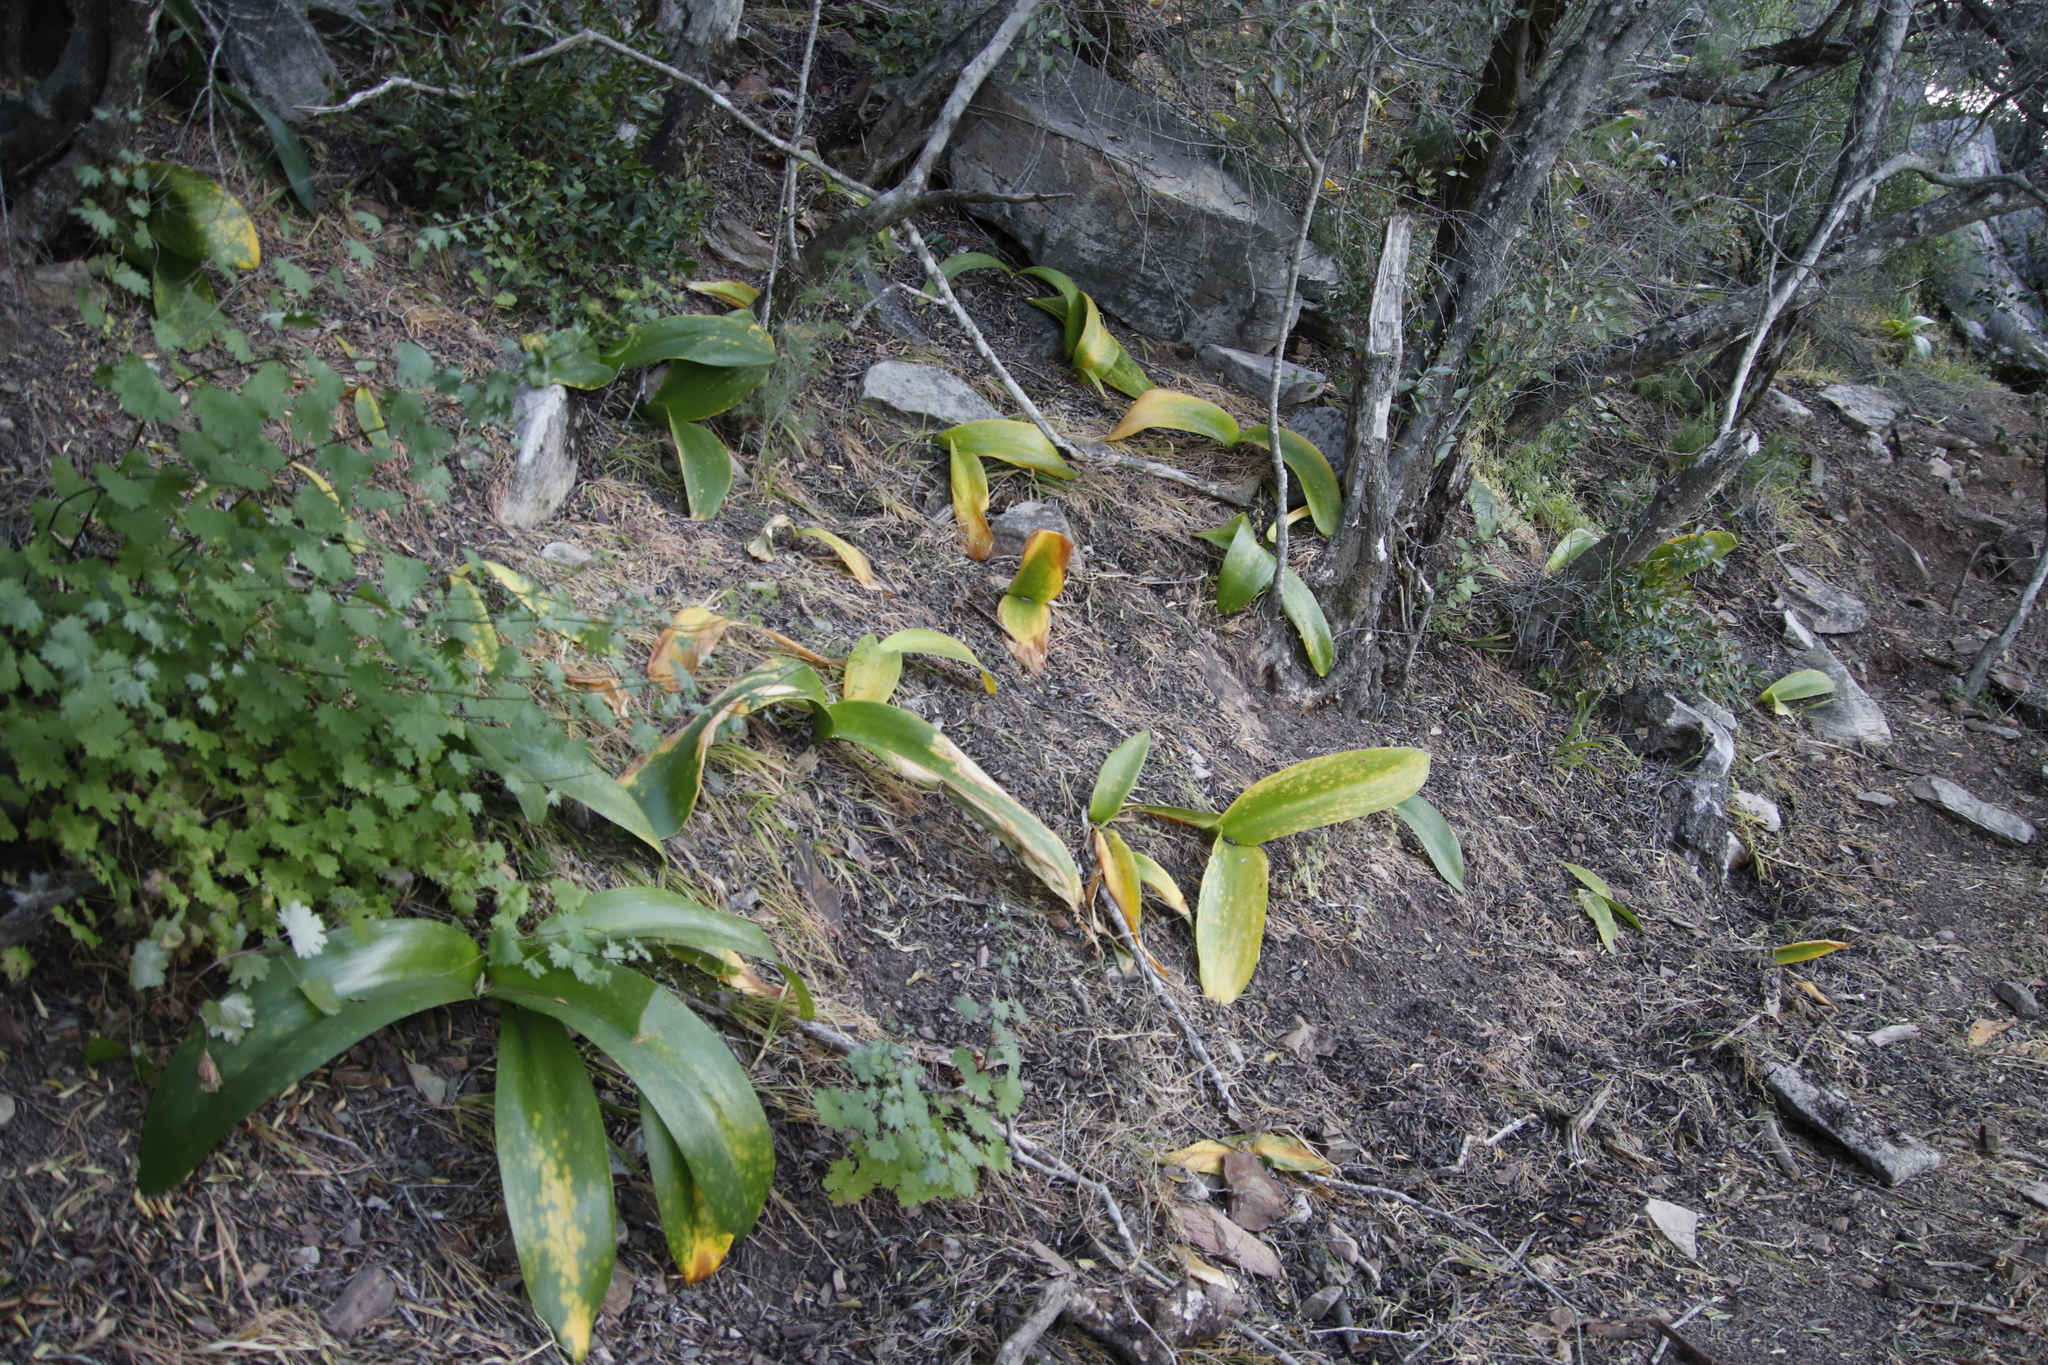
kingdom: Plantae
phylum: Tracheophyta
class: Liliopsida
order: Asparagales
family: Amaryllidaceae
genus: Haemanthus
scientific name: Haemanthus coccineus
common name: Cape-tulip
